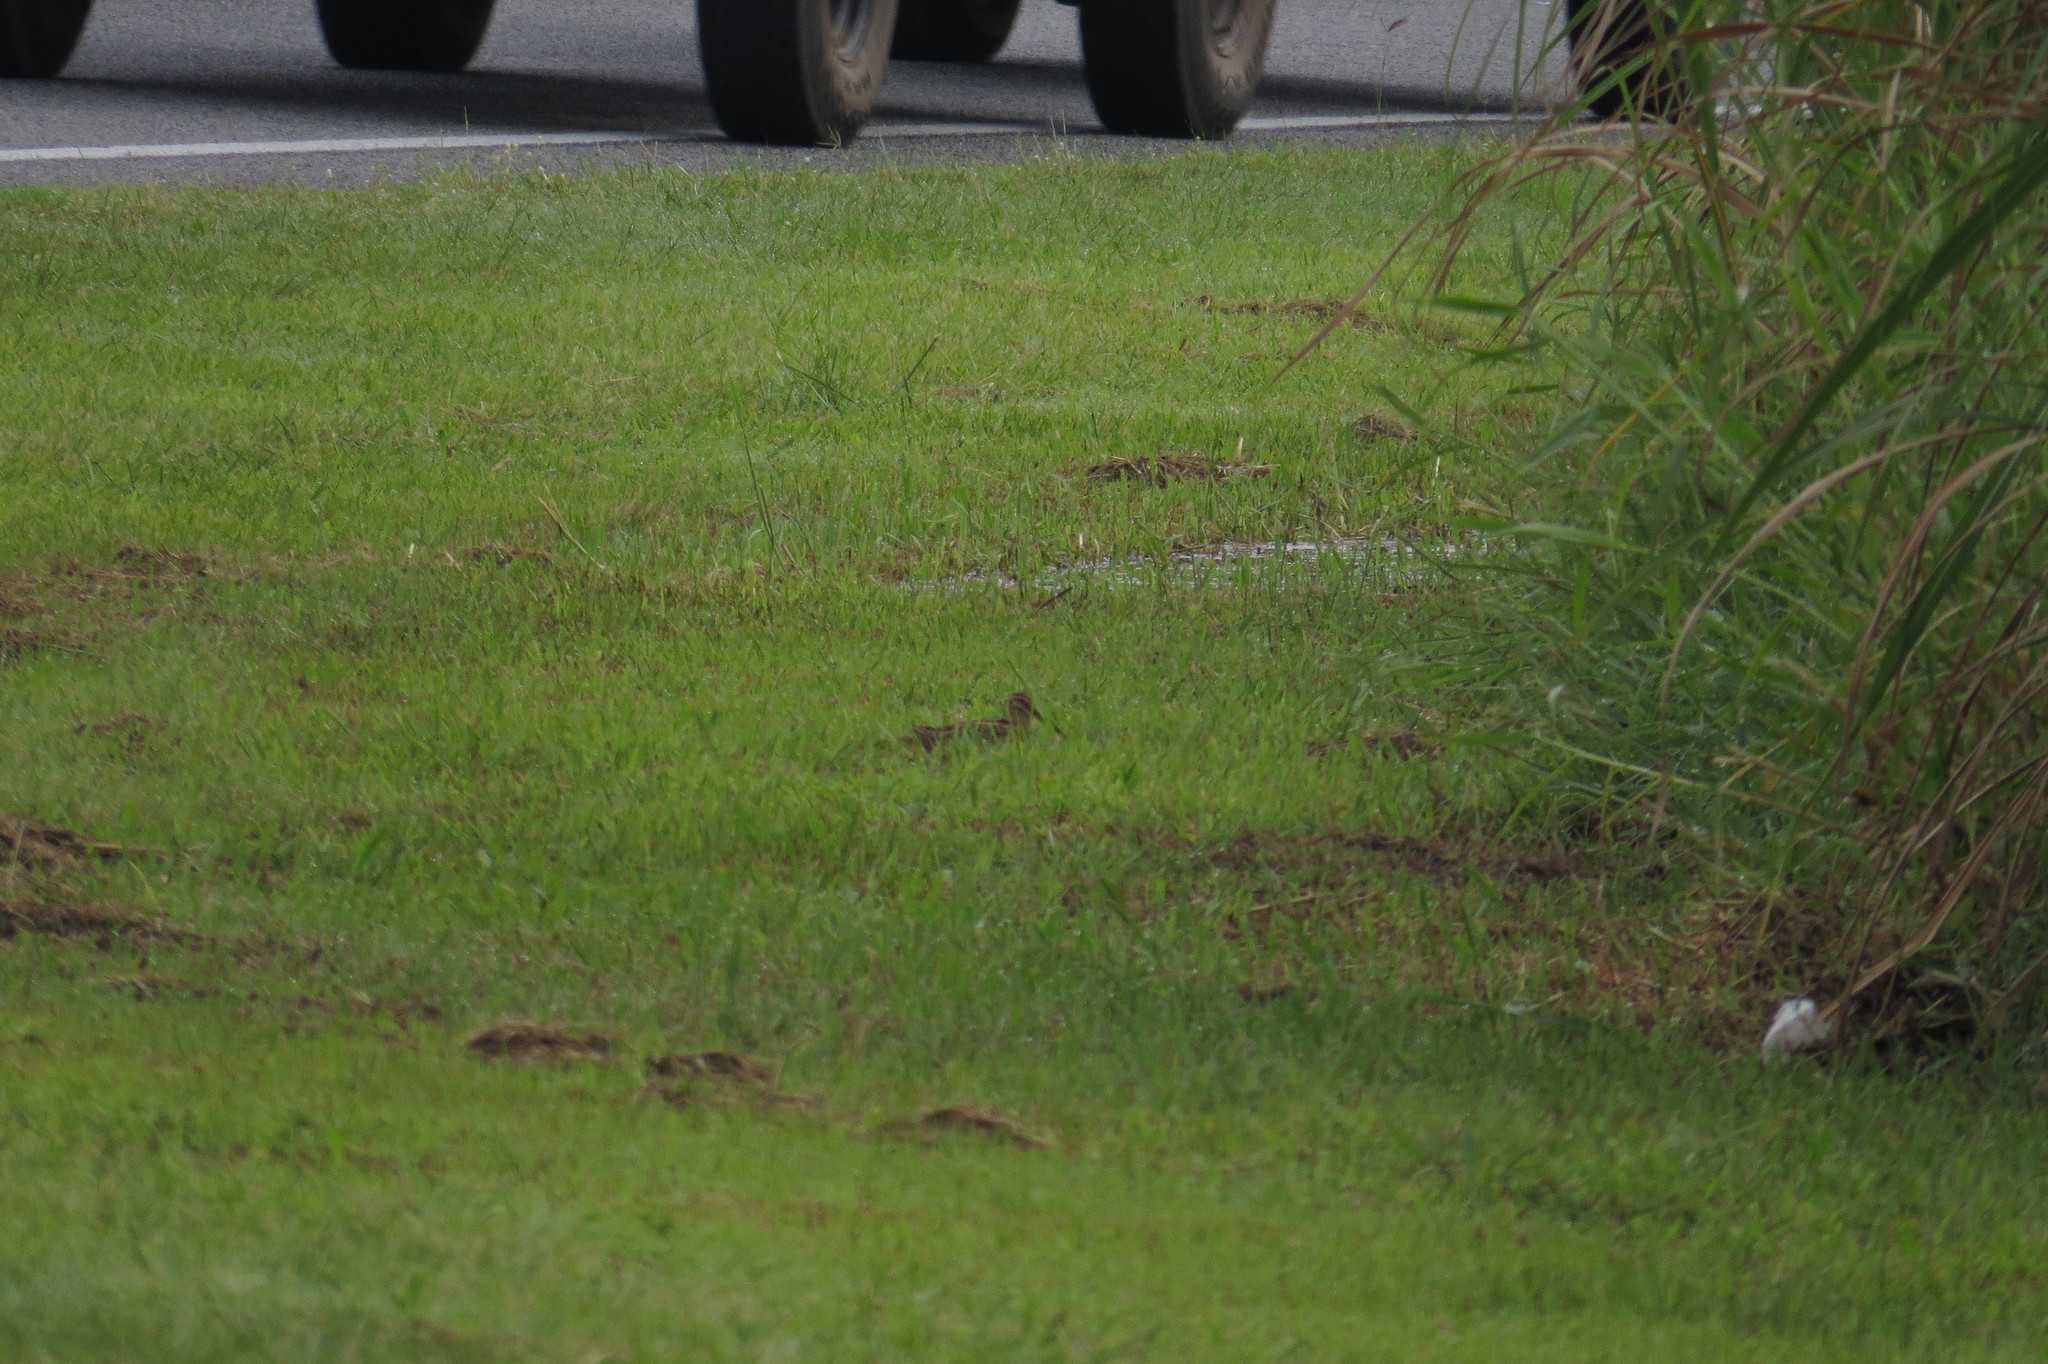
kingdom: Animalia
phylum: Chordata
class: Aves
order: Charadriiformes
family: Scolopacidae
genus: Gallinago
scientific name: Gallinago hardwickii
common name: Latham's snipe
